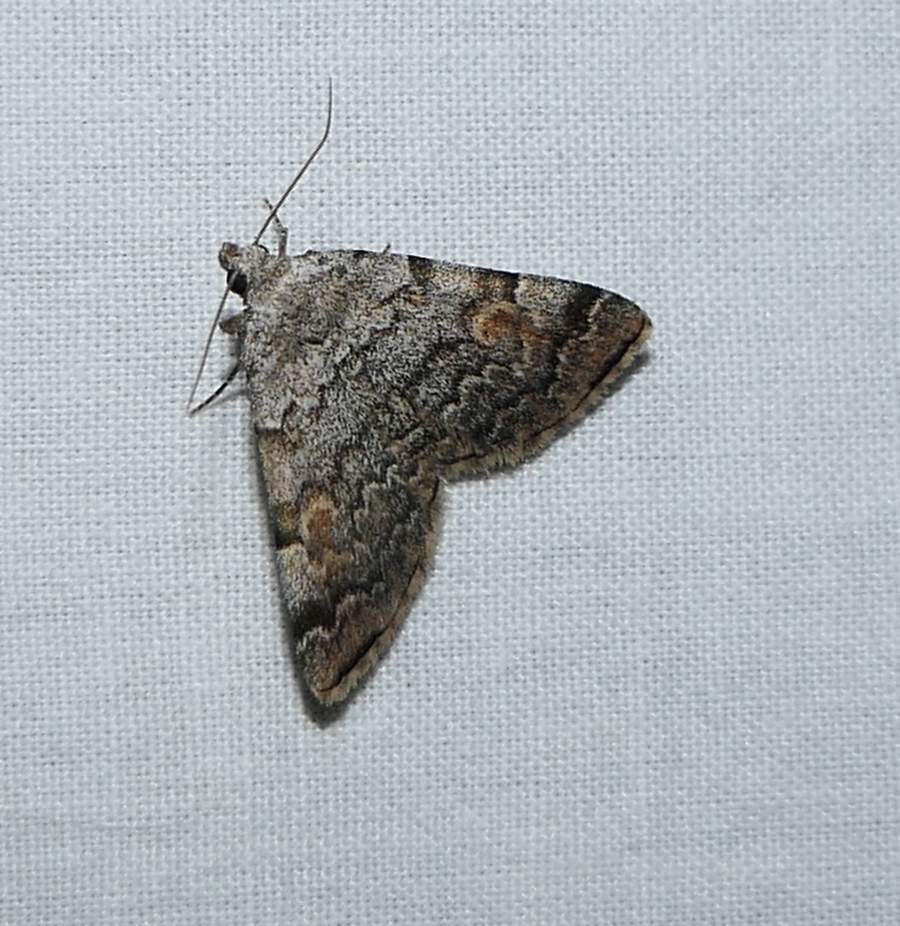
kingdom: Animalia
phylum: Arthropoda
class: Insecta
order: Lepidoptera
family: Erebidae
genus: Idia
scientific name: Idia americalis
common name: American idia moth
